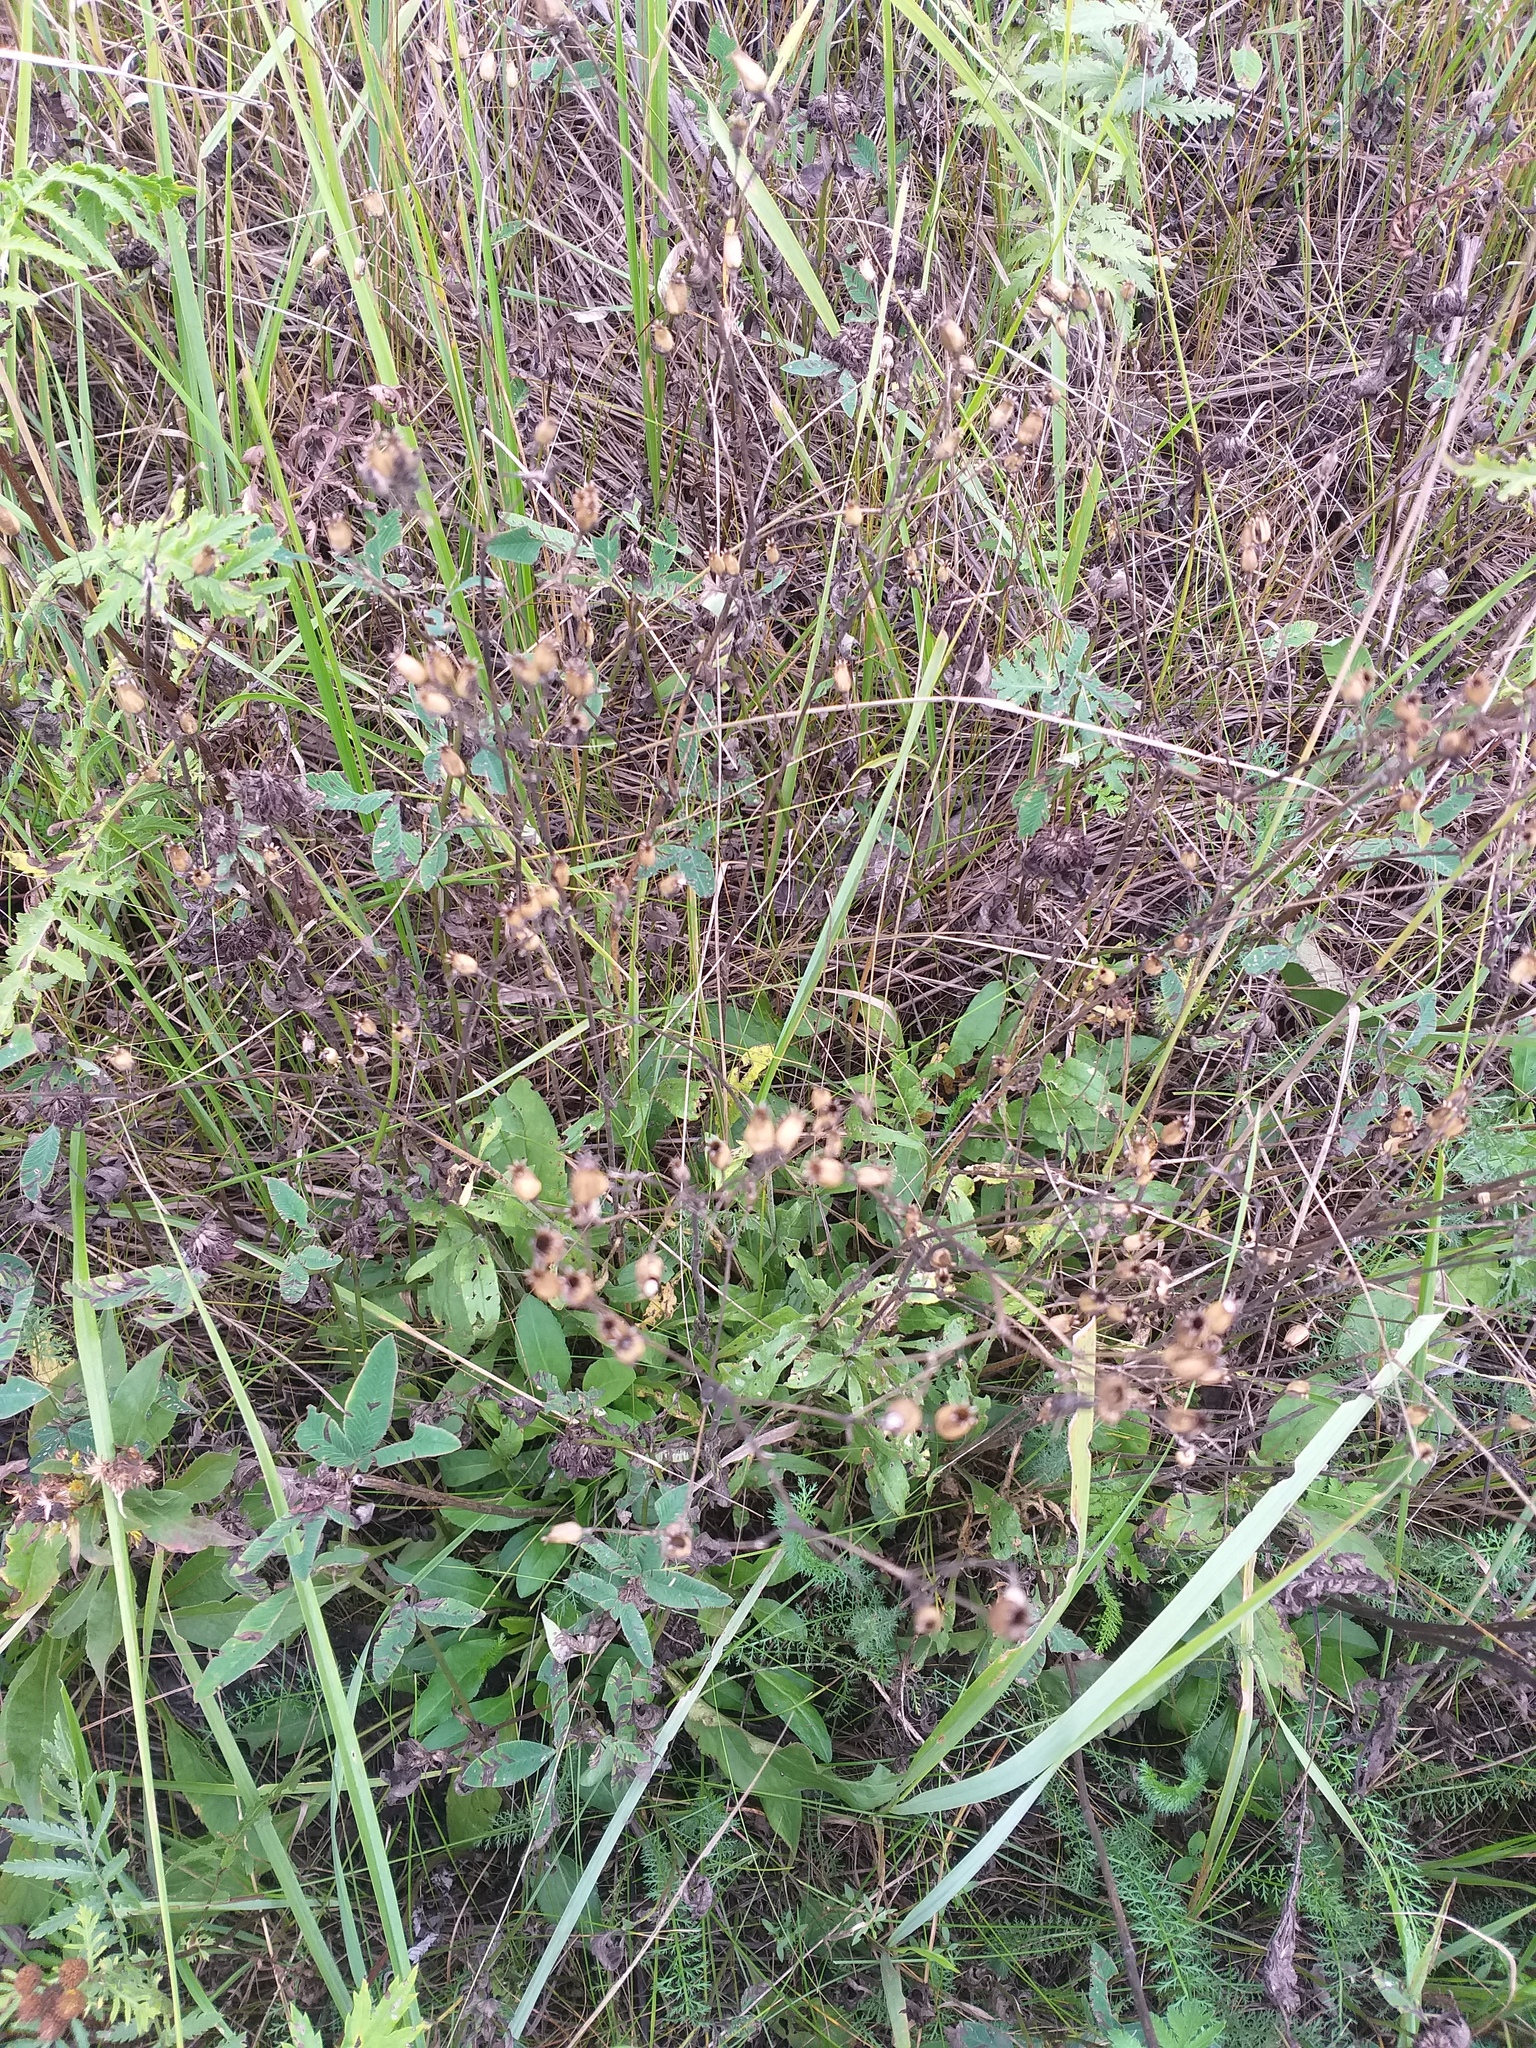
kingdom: Plantae
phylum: Tracheophyta
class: Magnoliopsida
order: Caryophyllales
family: Caryophyllaceae
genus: Silene
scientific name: Silene nutans
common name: Nottingham catchfly
